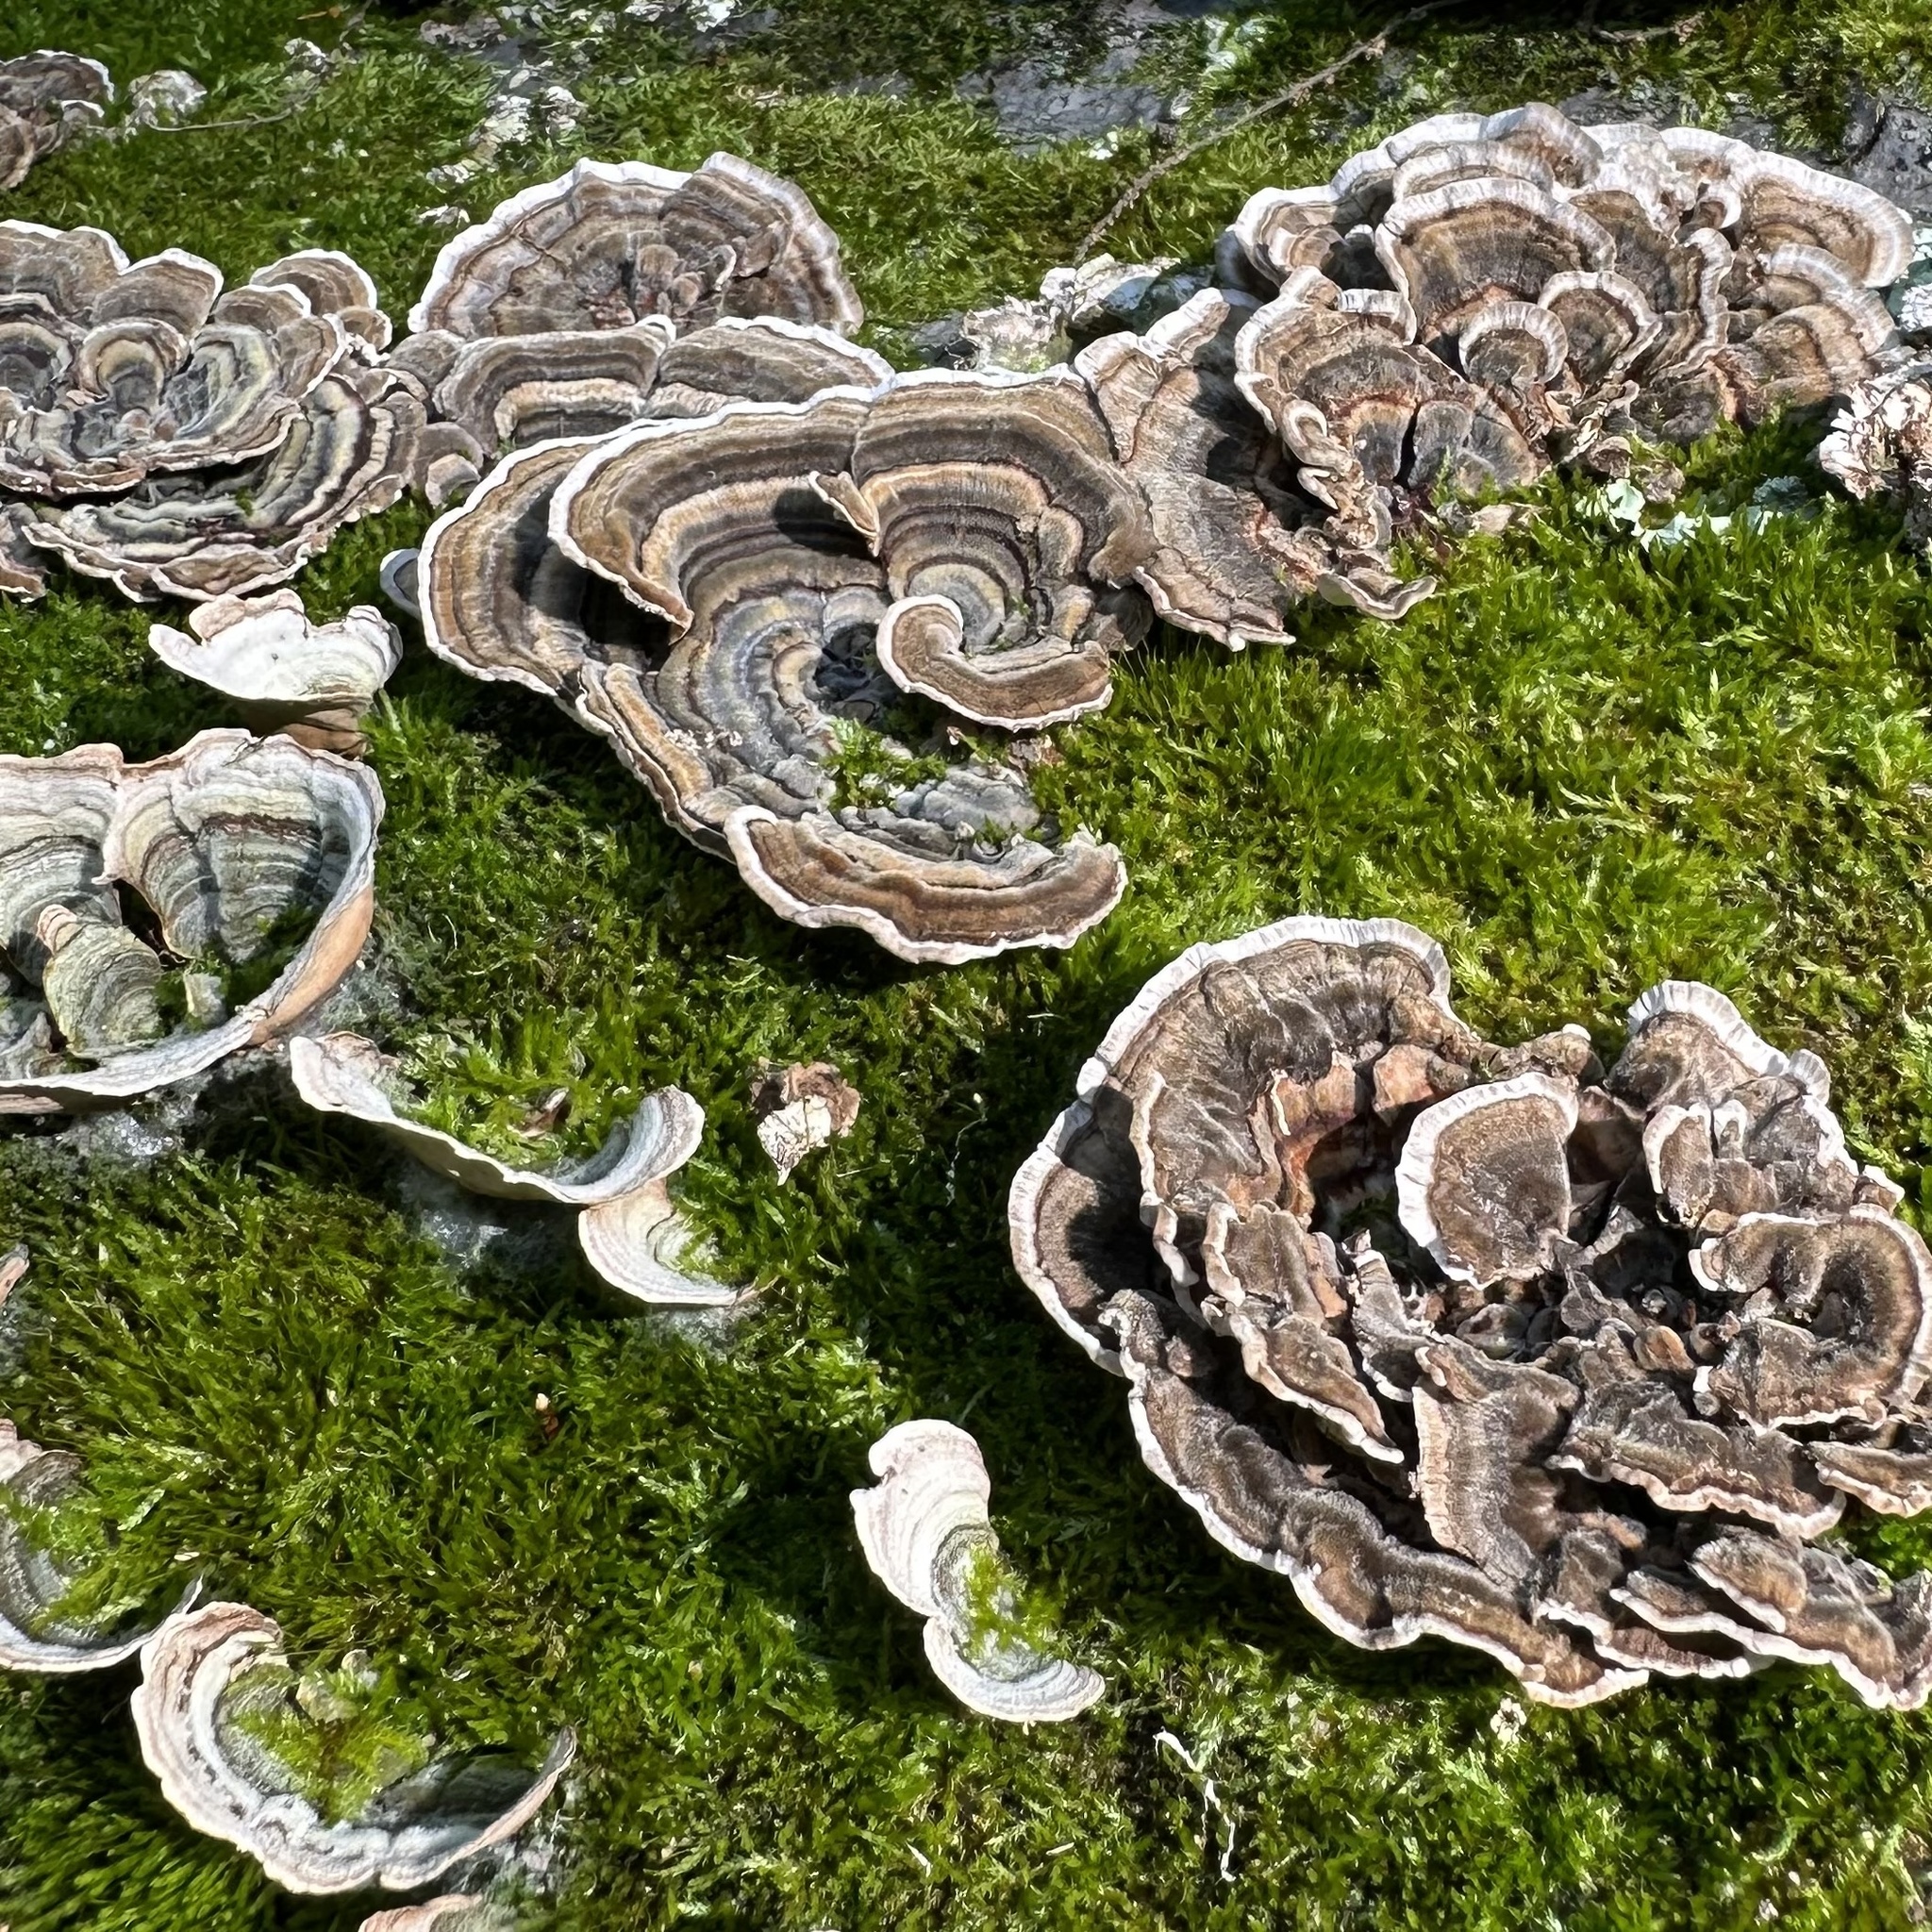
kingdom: Fungi
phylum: Basidiomycota
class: Agaricomycetes
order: Polyporales
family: Polyporaceae
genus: Trametes
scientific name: Trametes versicolor
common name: Turkeytail
